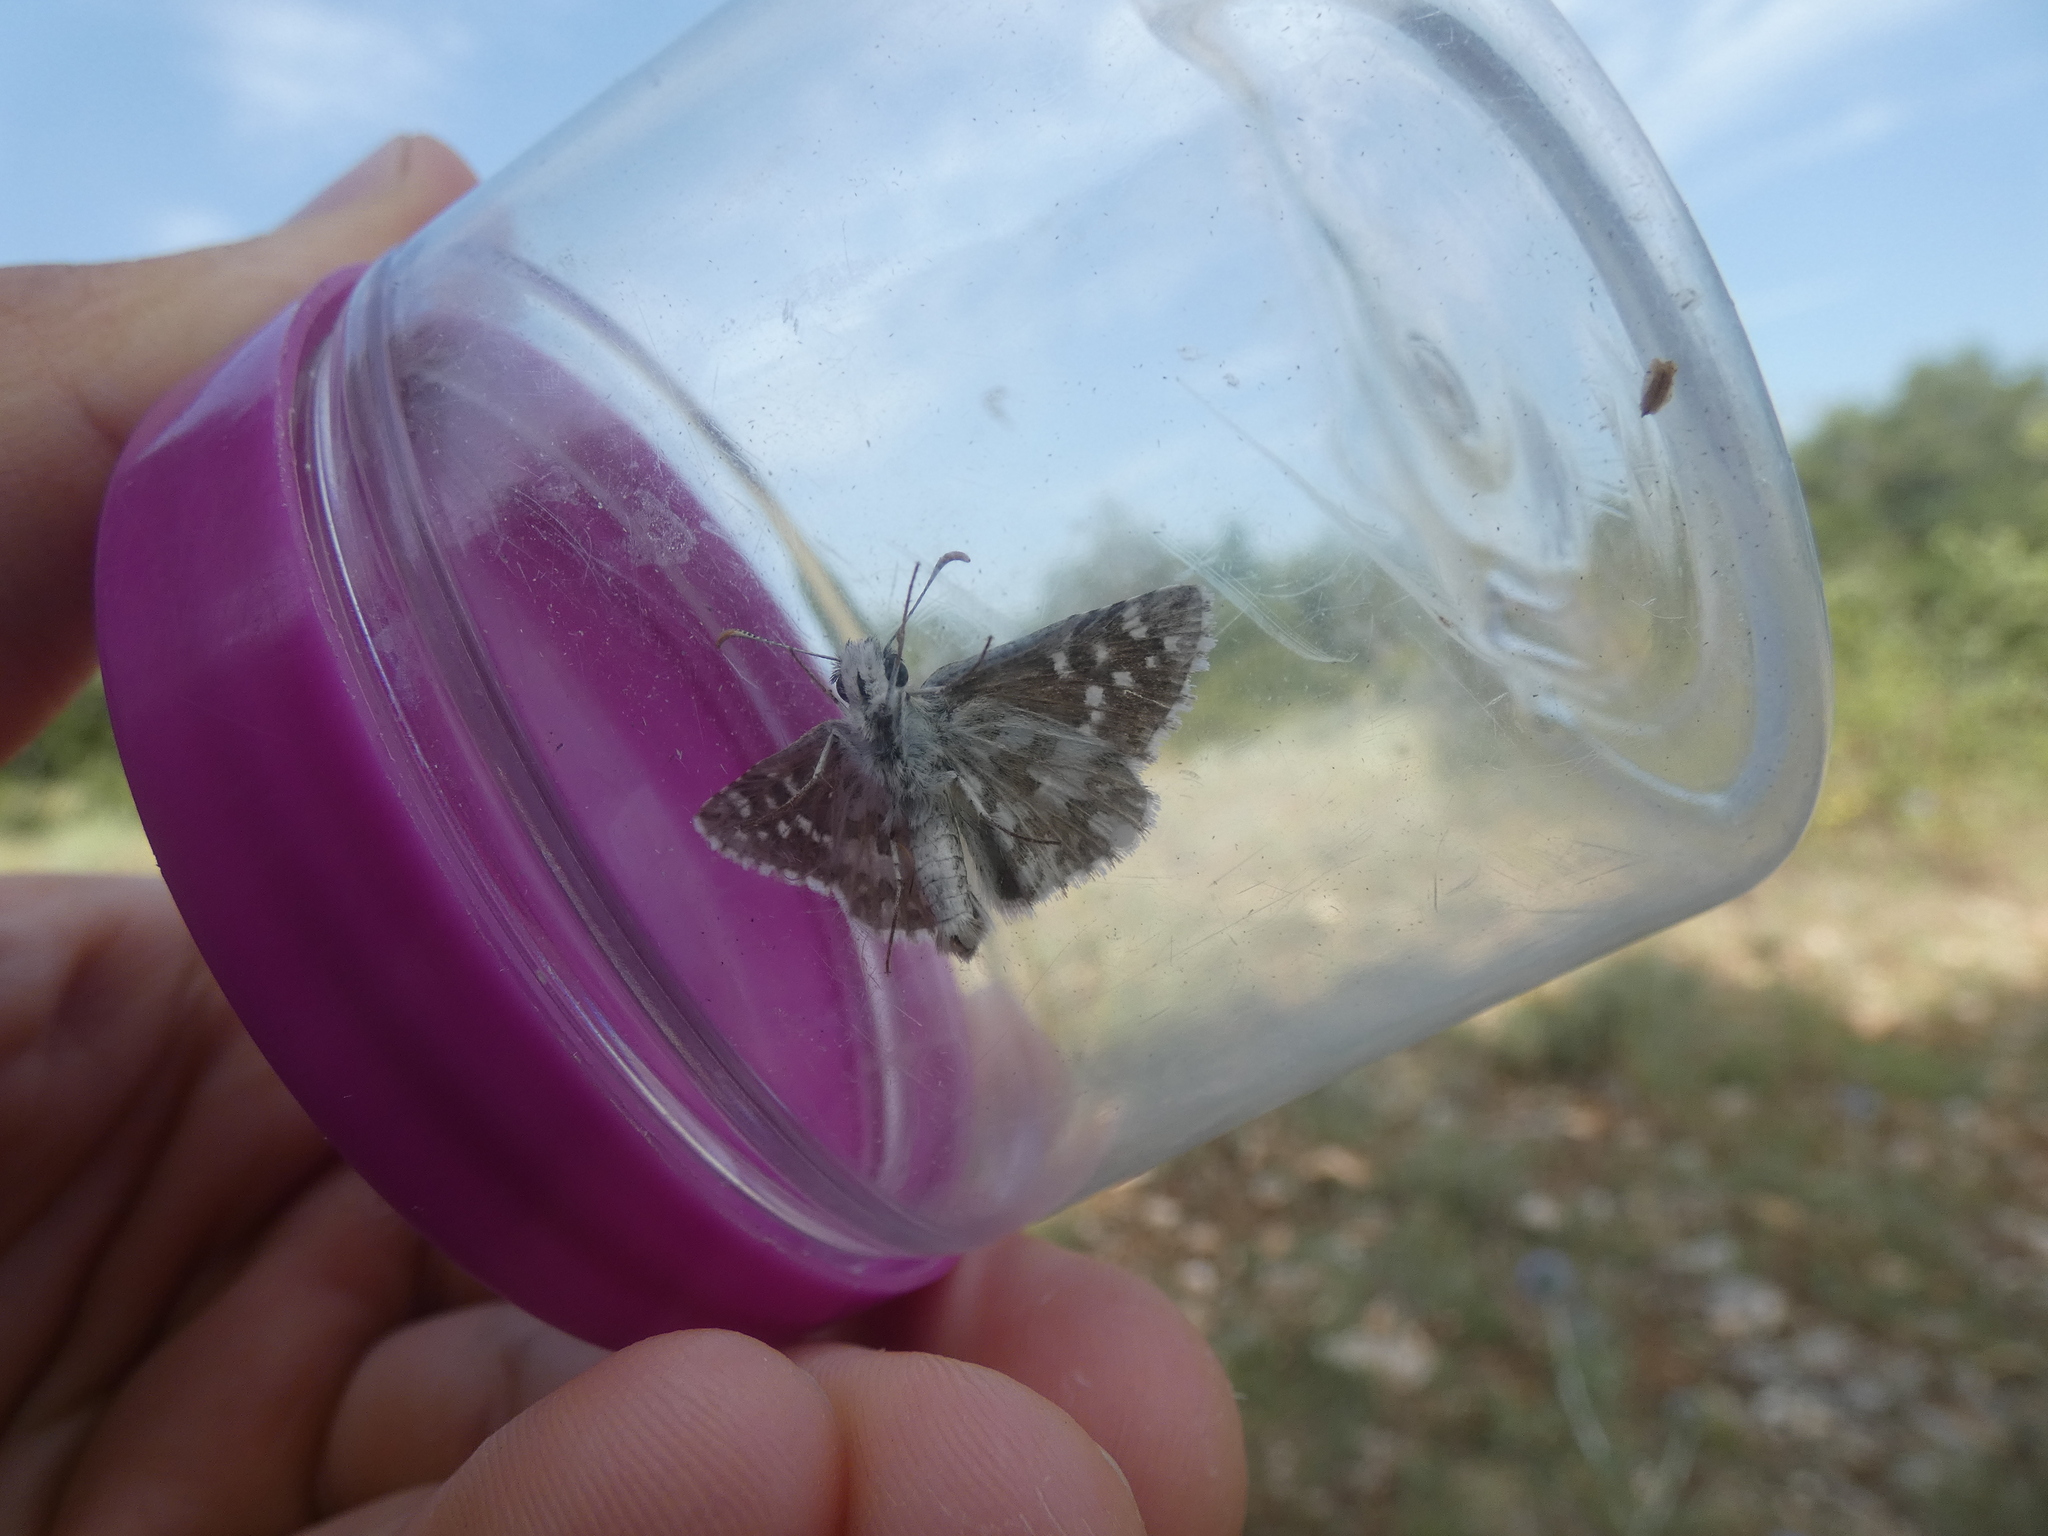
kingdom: Animalia
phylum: Arthropoda
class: Insecta
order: Lepidoptera
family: Hesperiidae
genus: Pyrgus
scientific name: Pyrgus onopordi
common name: Rosy grizzled skipper
